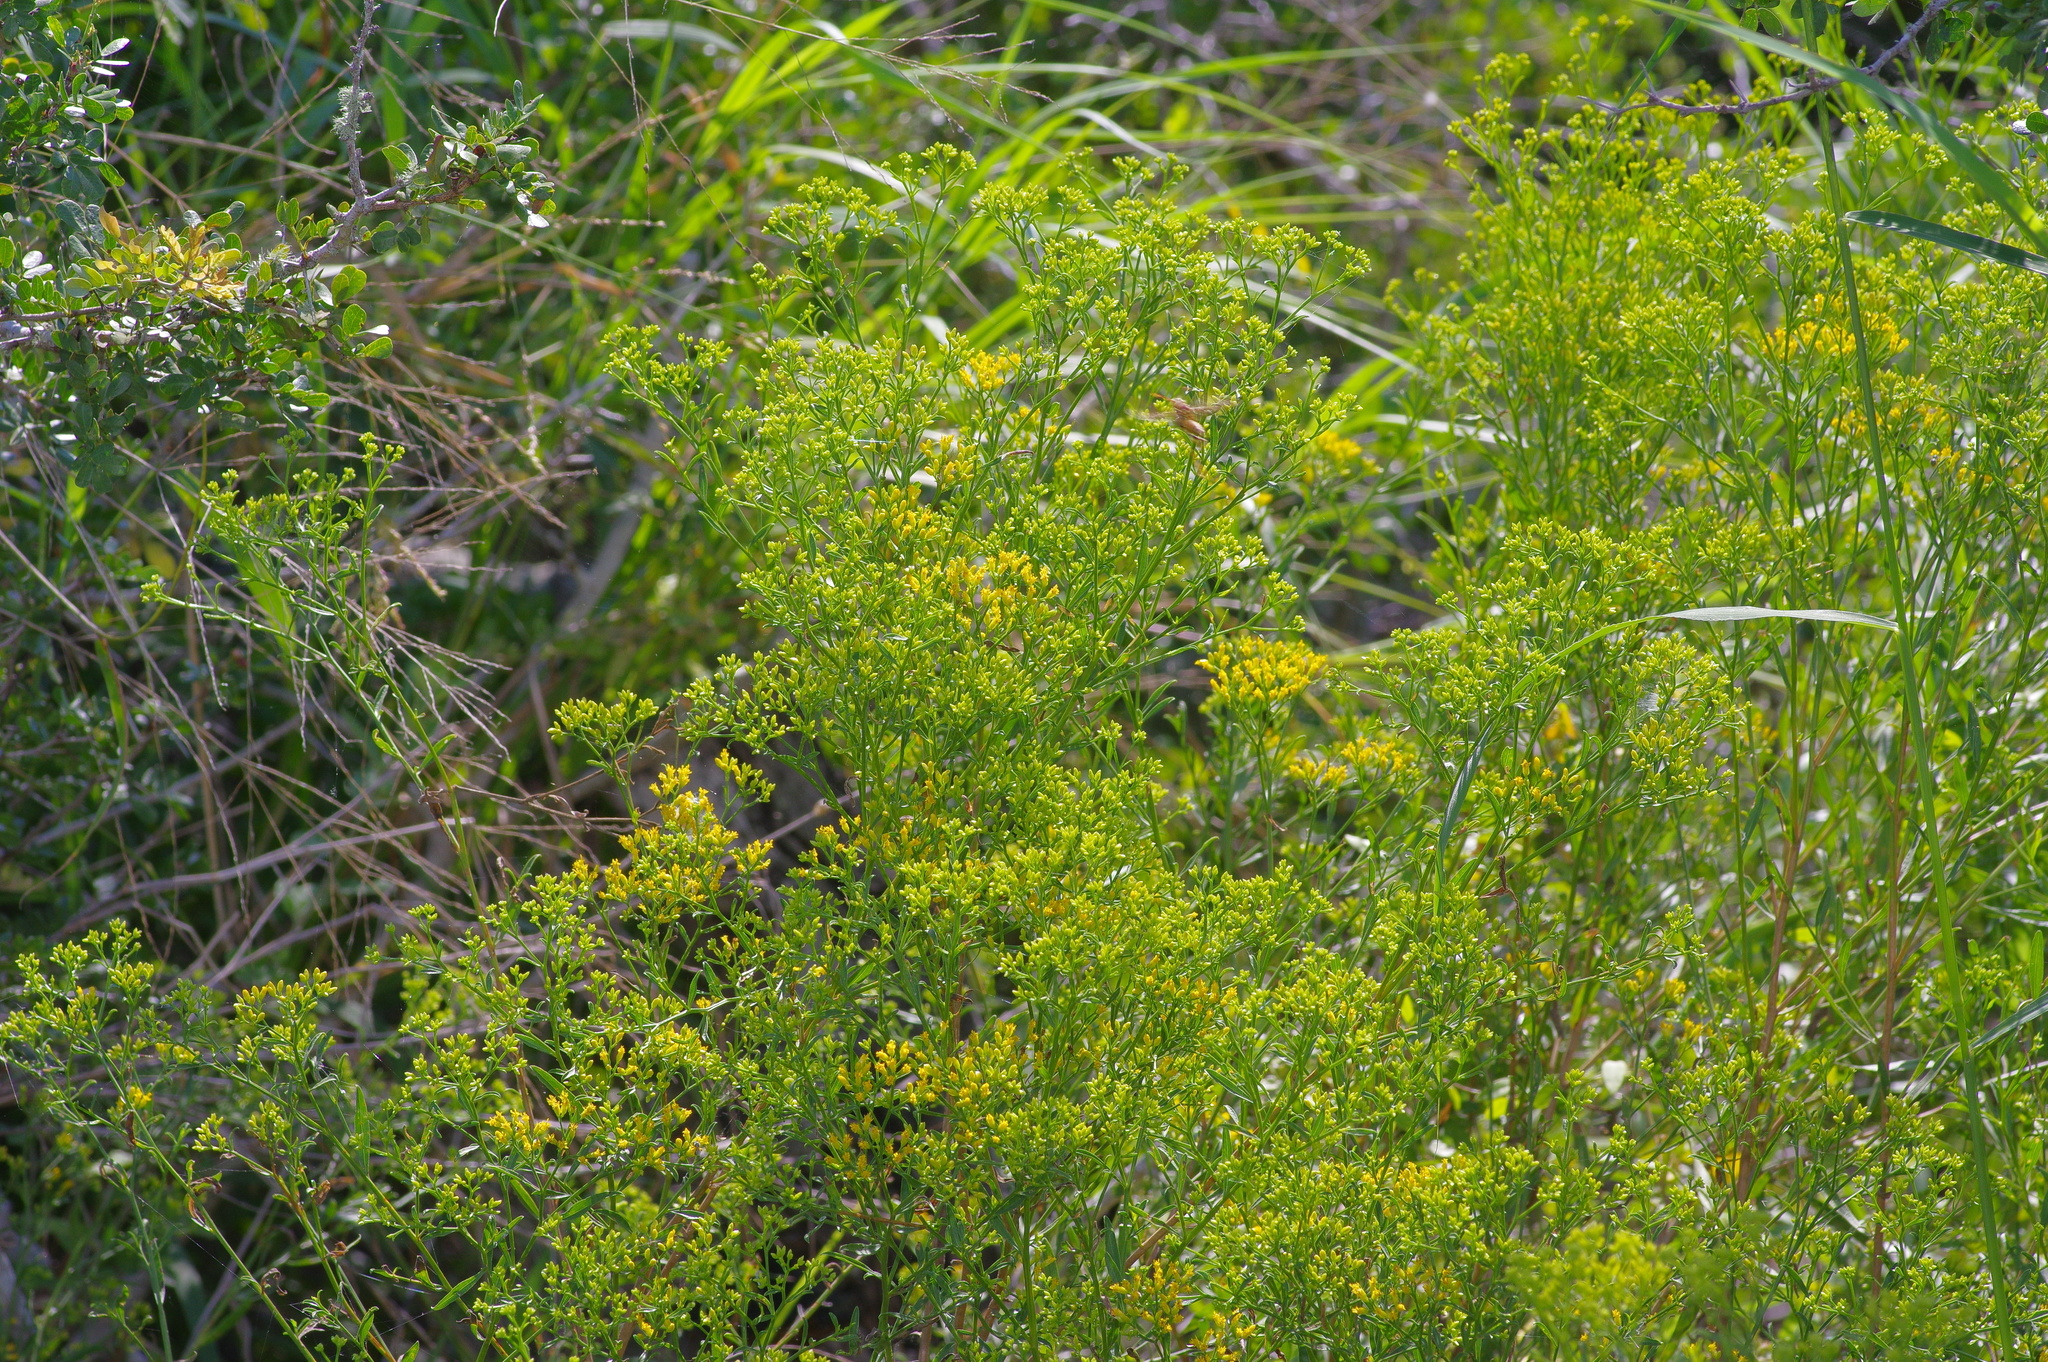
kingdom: Plantae
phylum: Tracheophyta
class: Magnoliopsida
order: Asterales
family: Asteraceae
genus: Gymnosperma
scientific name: Gymnosperma glutinosum
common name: Gumhead
